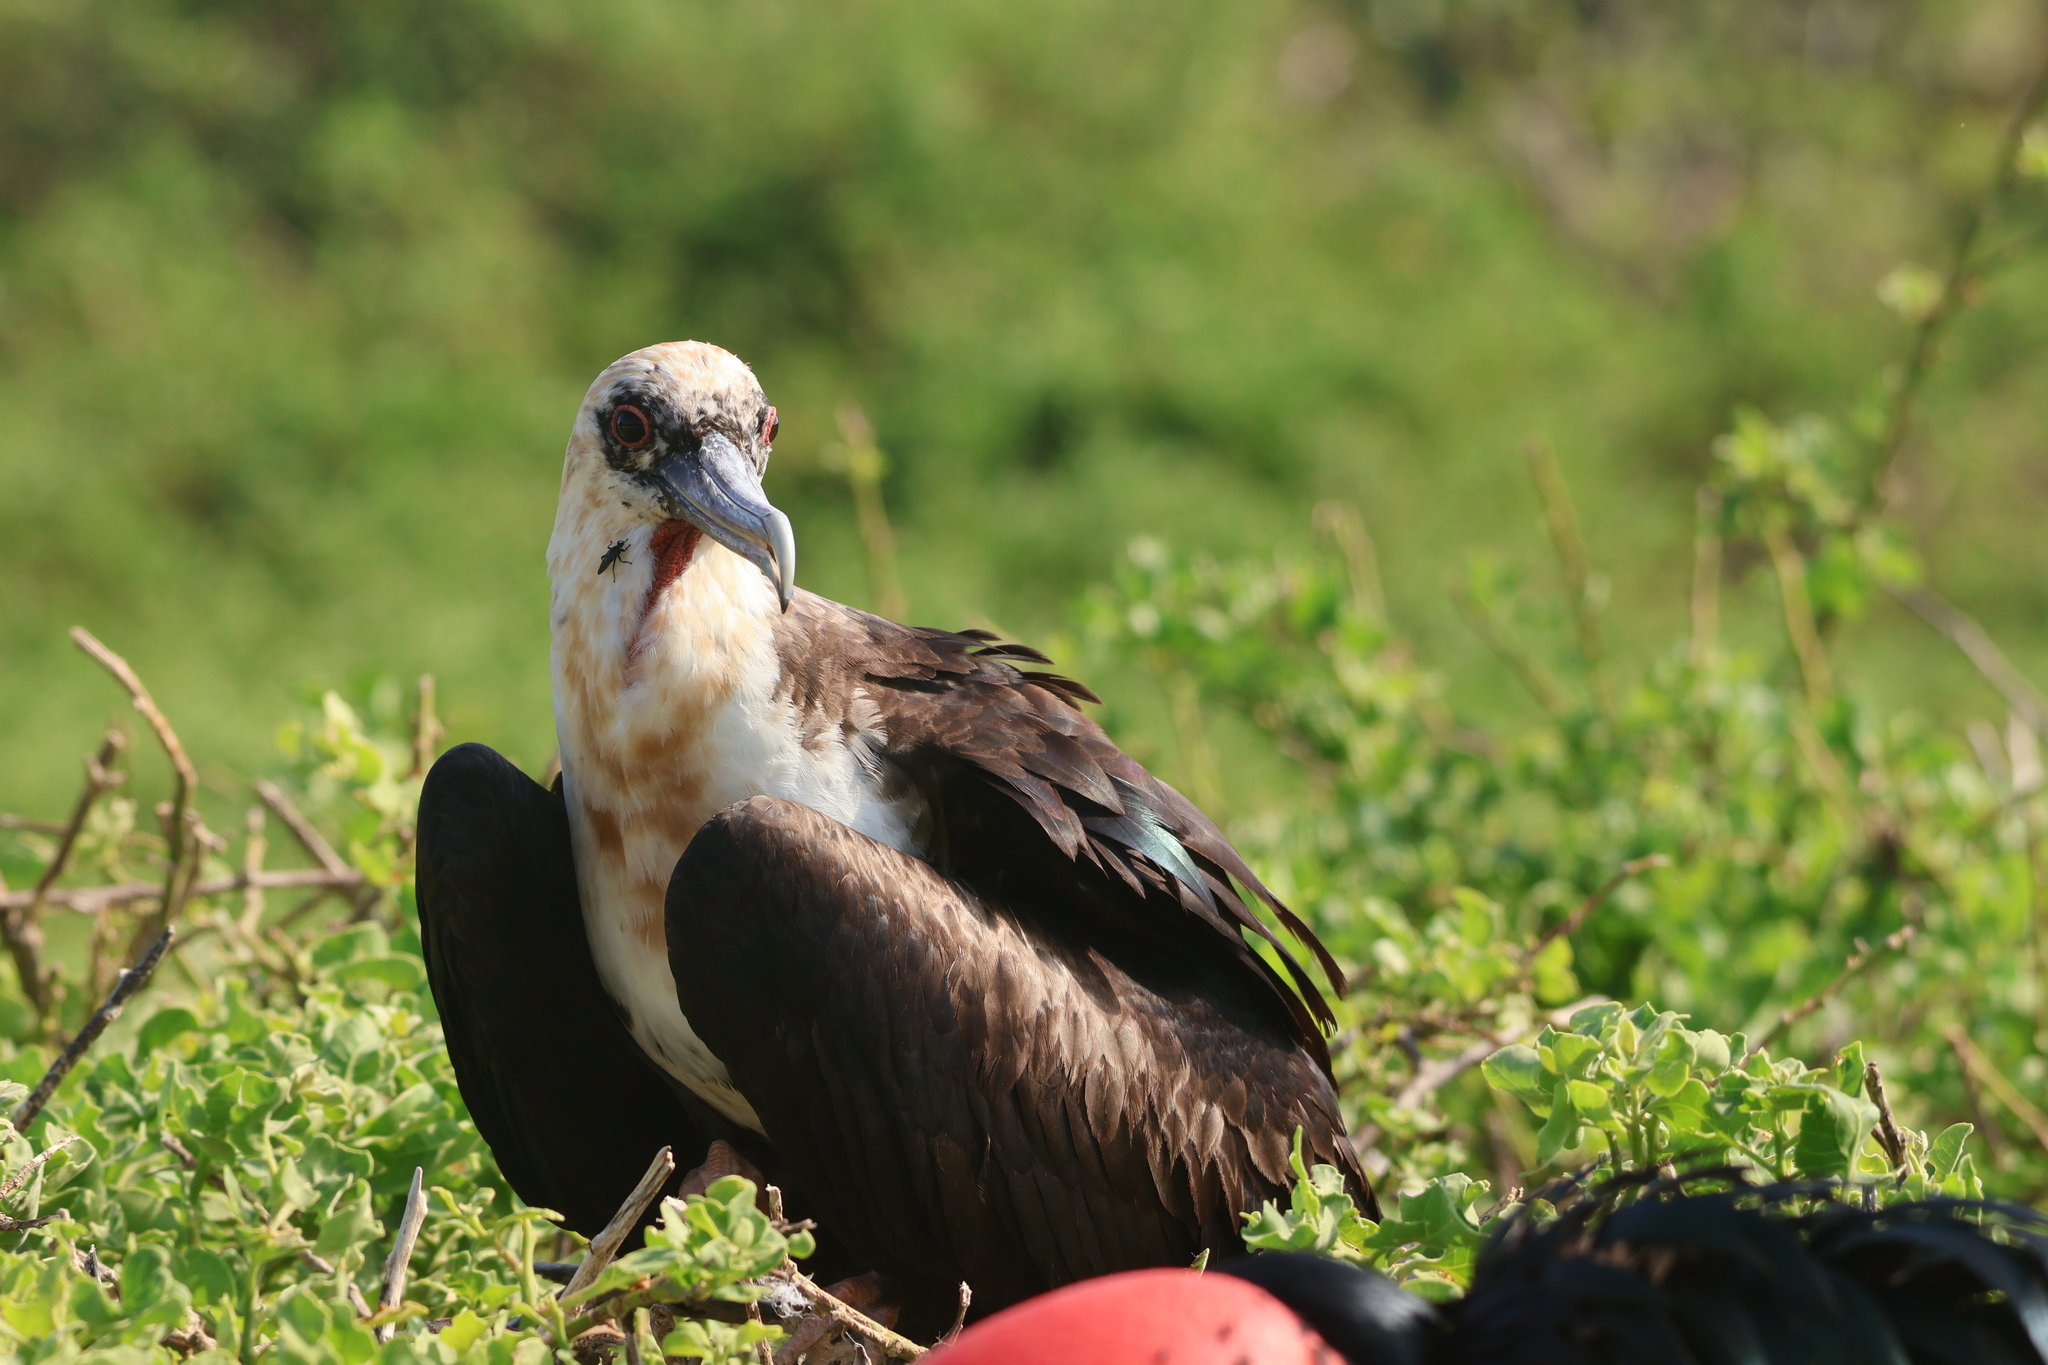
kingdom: Animalia
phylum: Chordata
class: Aves
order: Suliformes
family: Fregatidae
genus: Fregata
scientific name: Fregata minor
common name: Great frigatebird
